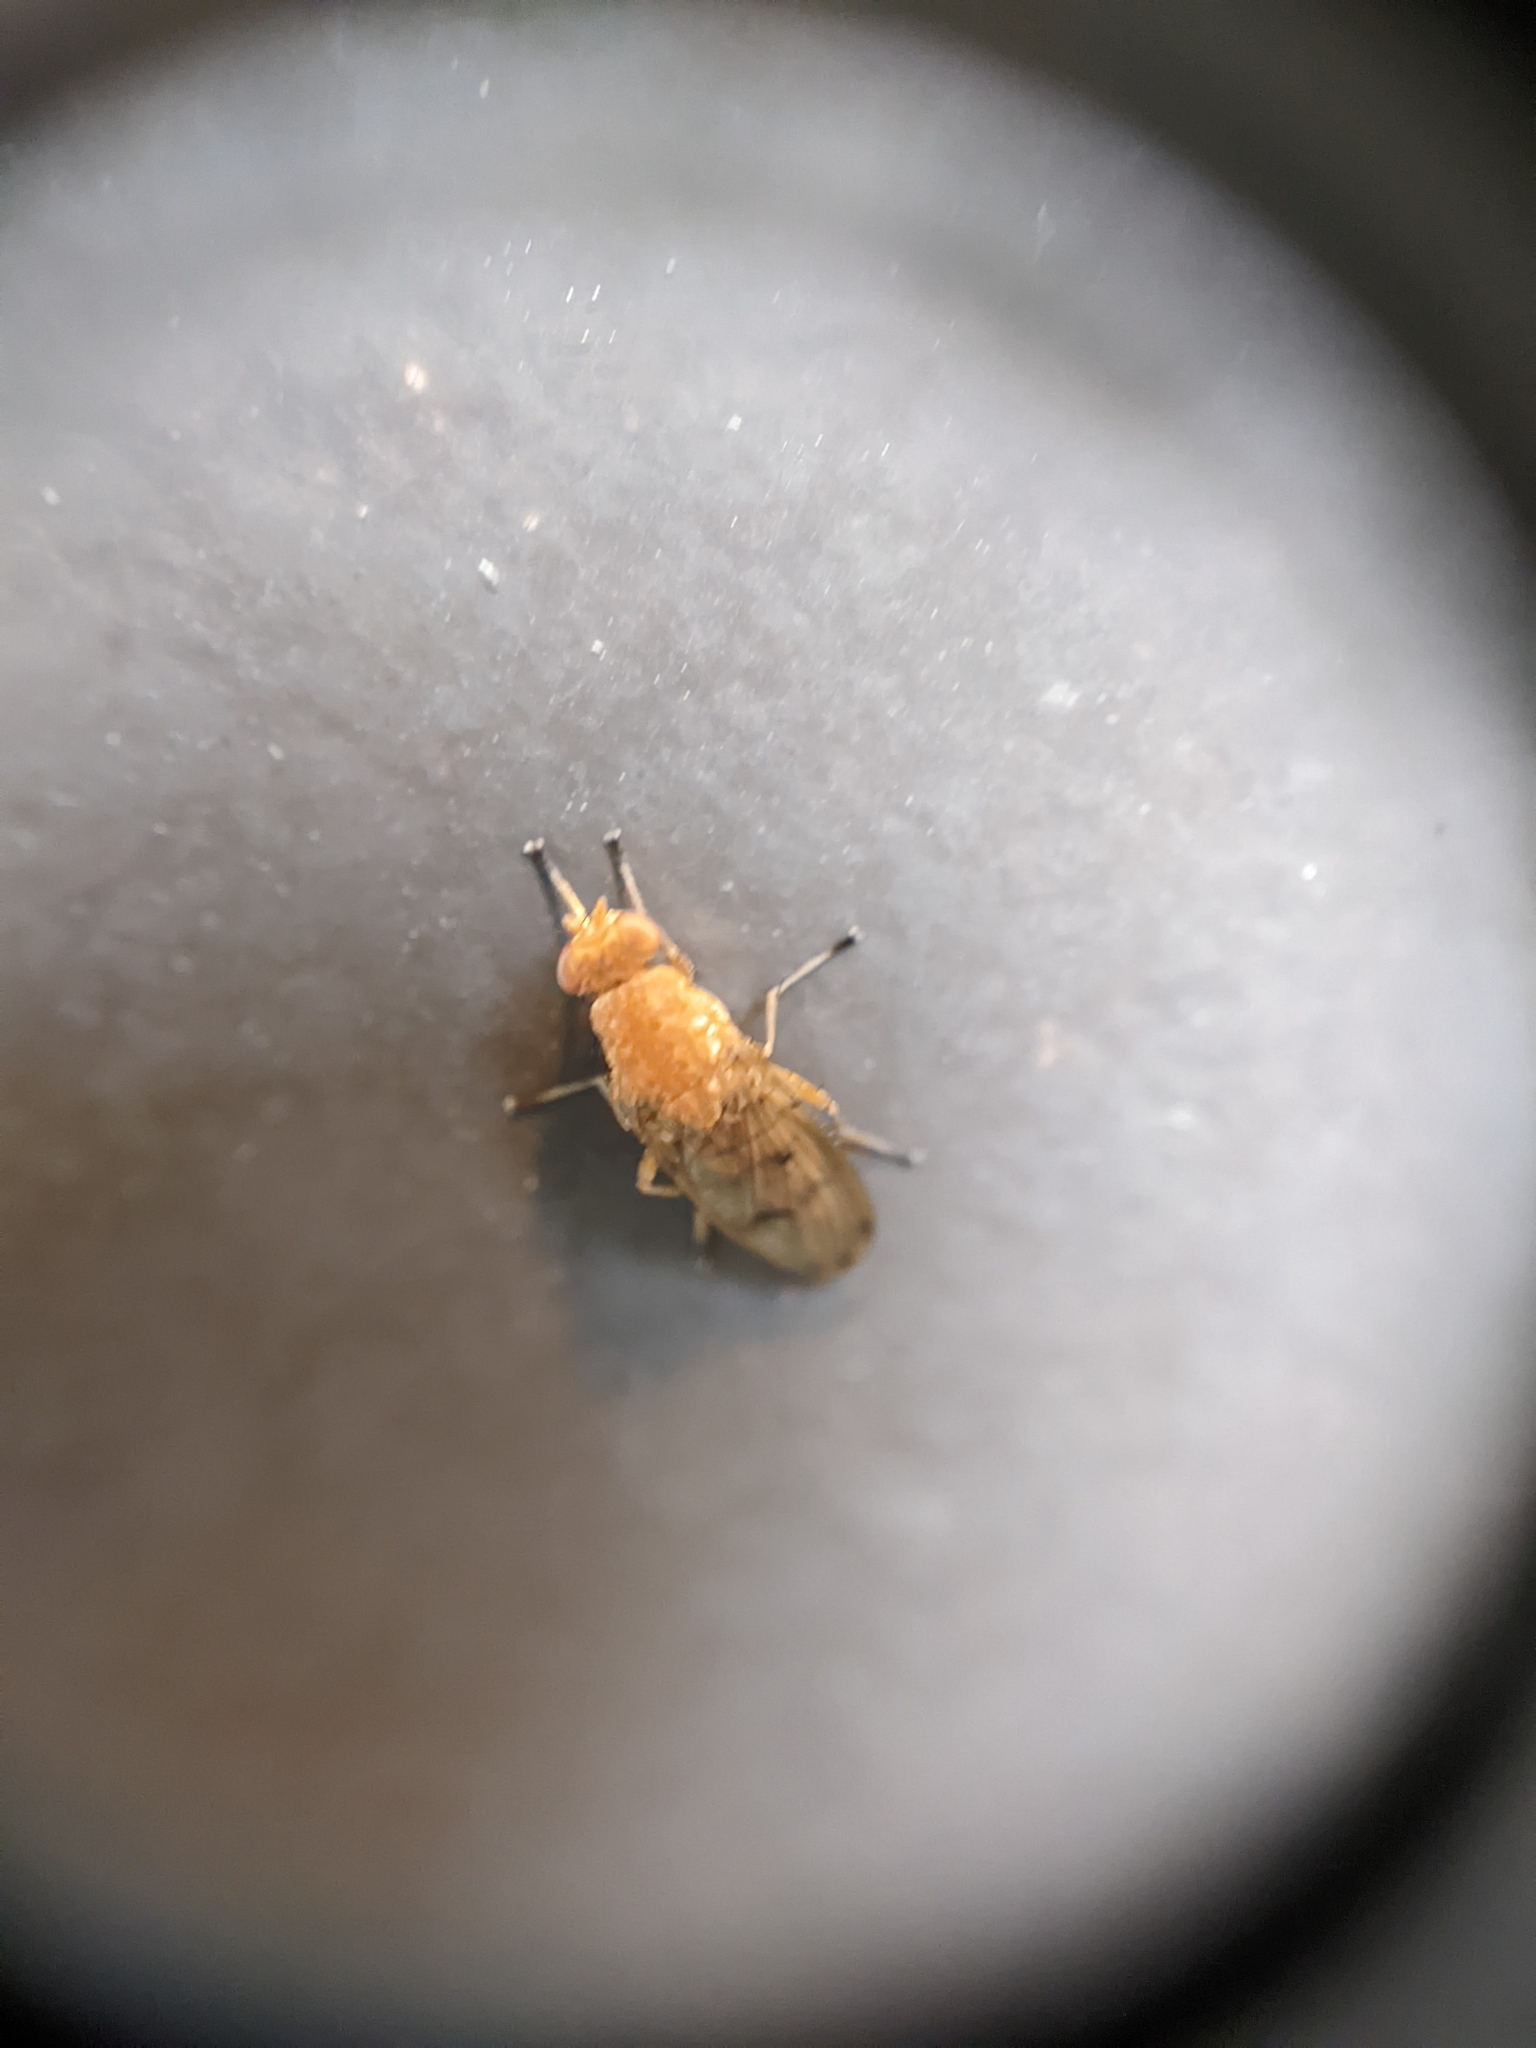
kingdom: Animalia
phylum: Arthropoda
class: Insecta
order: Diptera
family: Heleomyzidae
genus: Suillia
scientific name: Suillia quinquepunctata
